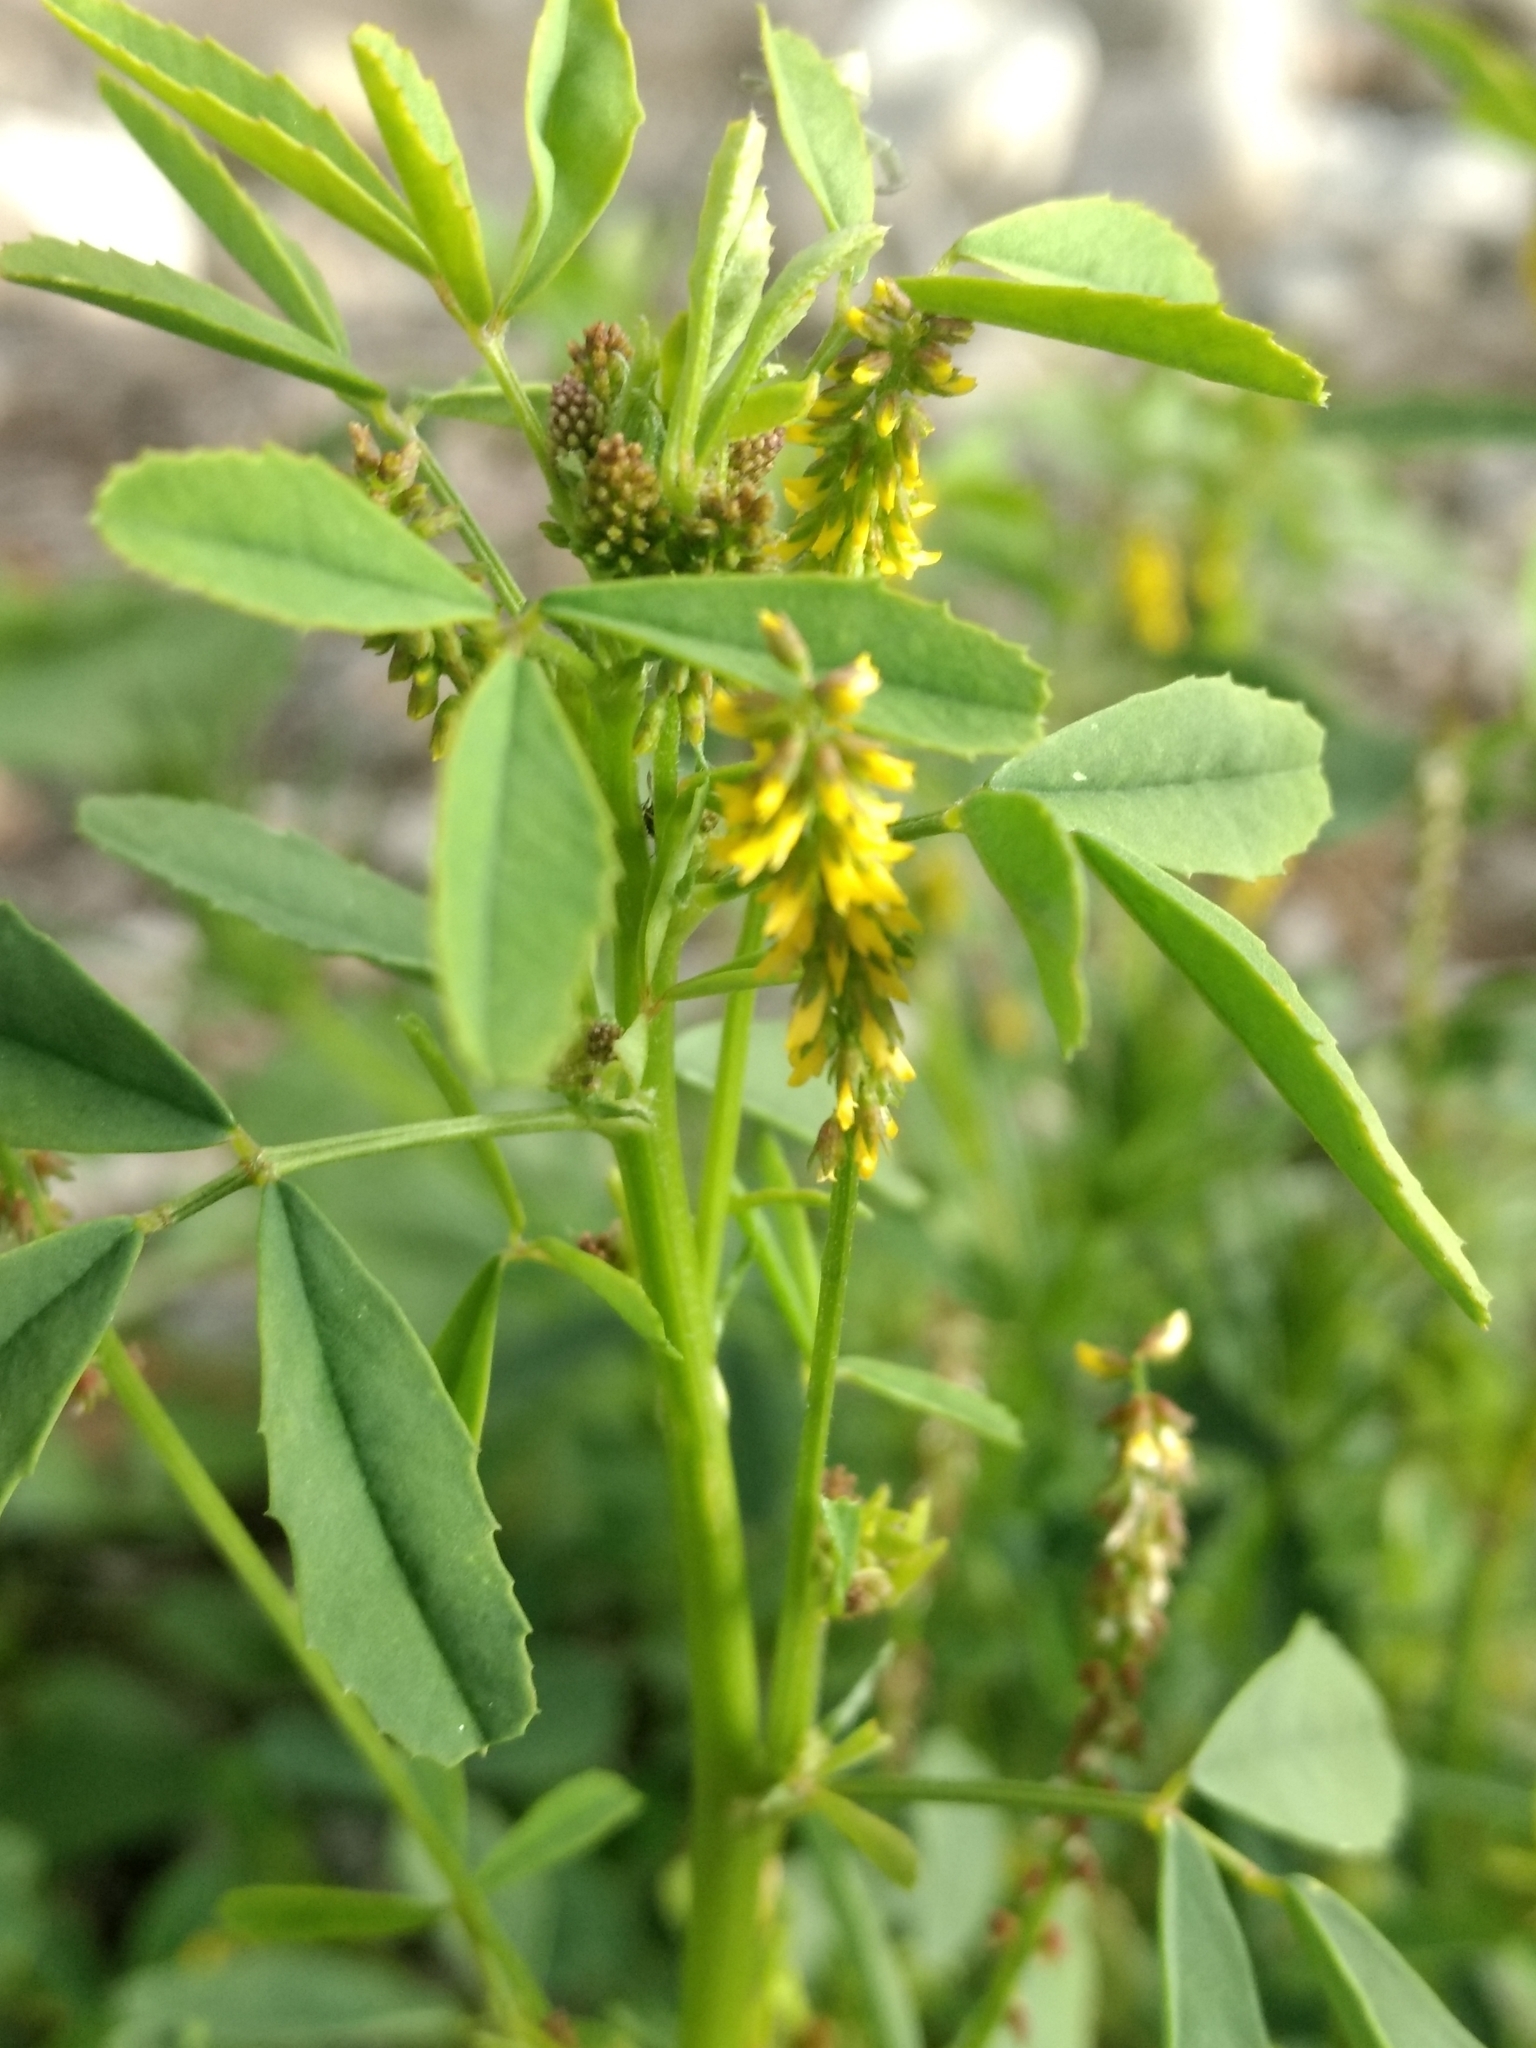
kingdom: Plantae
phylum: Tracheophyta
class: Magnoliopsida
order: Fabales
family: Fabaceae
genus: Melilotus
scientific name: Melilotus indicus
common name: Small melilot
